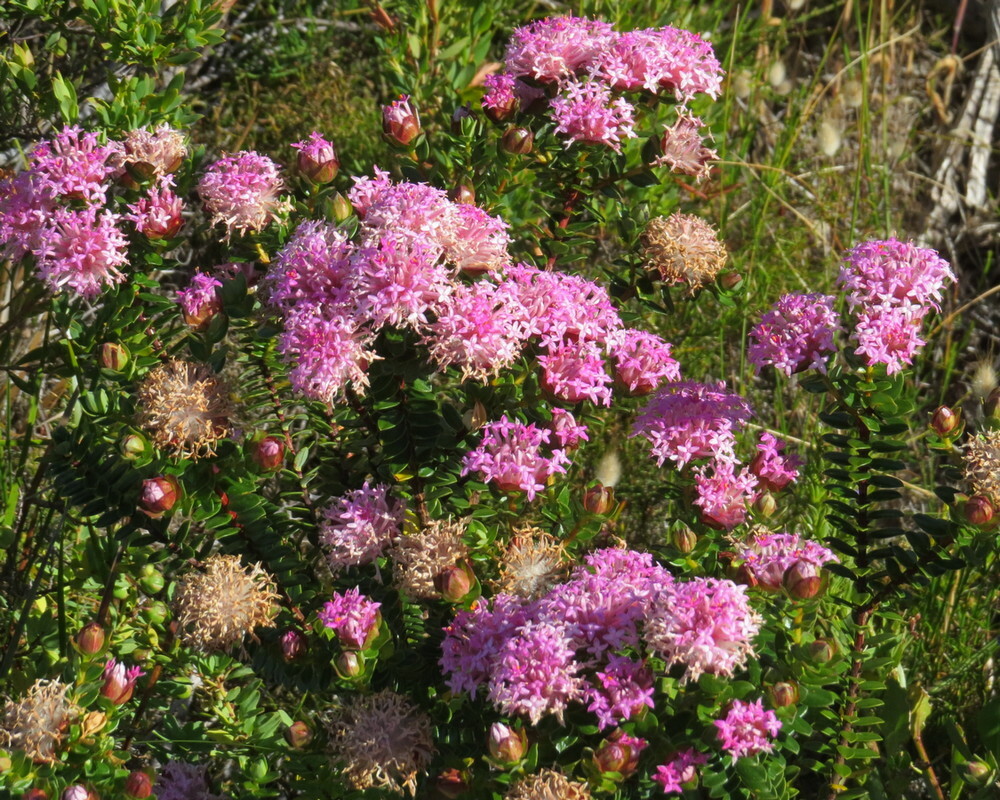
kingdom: Plantae
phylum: Tracheophyta
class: Magnoliopsida
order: Malvales
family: Thymelaeaceae
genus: Pimelea
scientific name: Pimelea ferruginea
